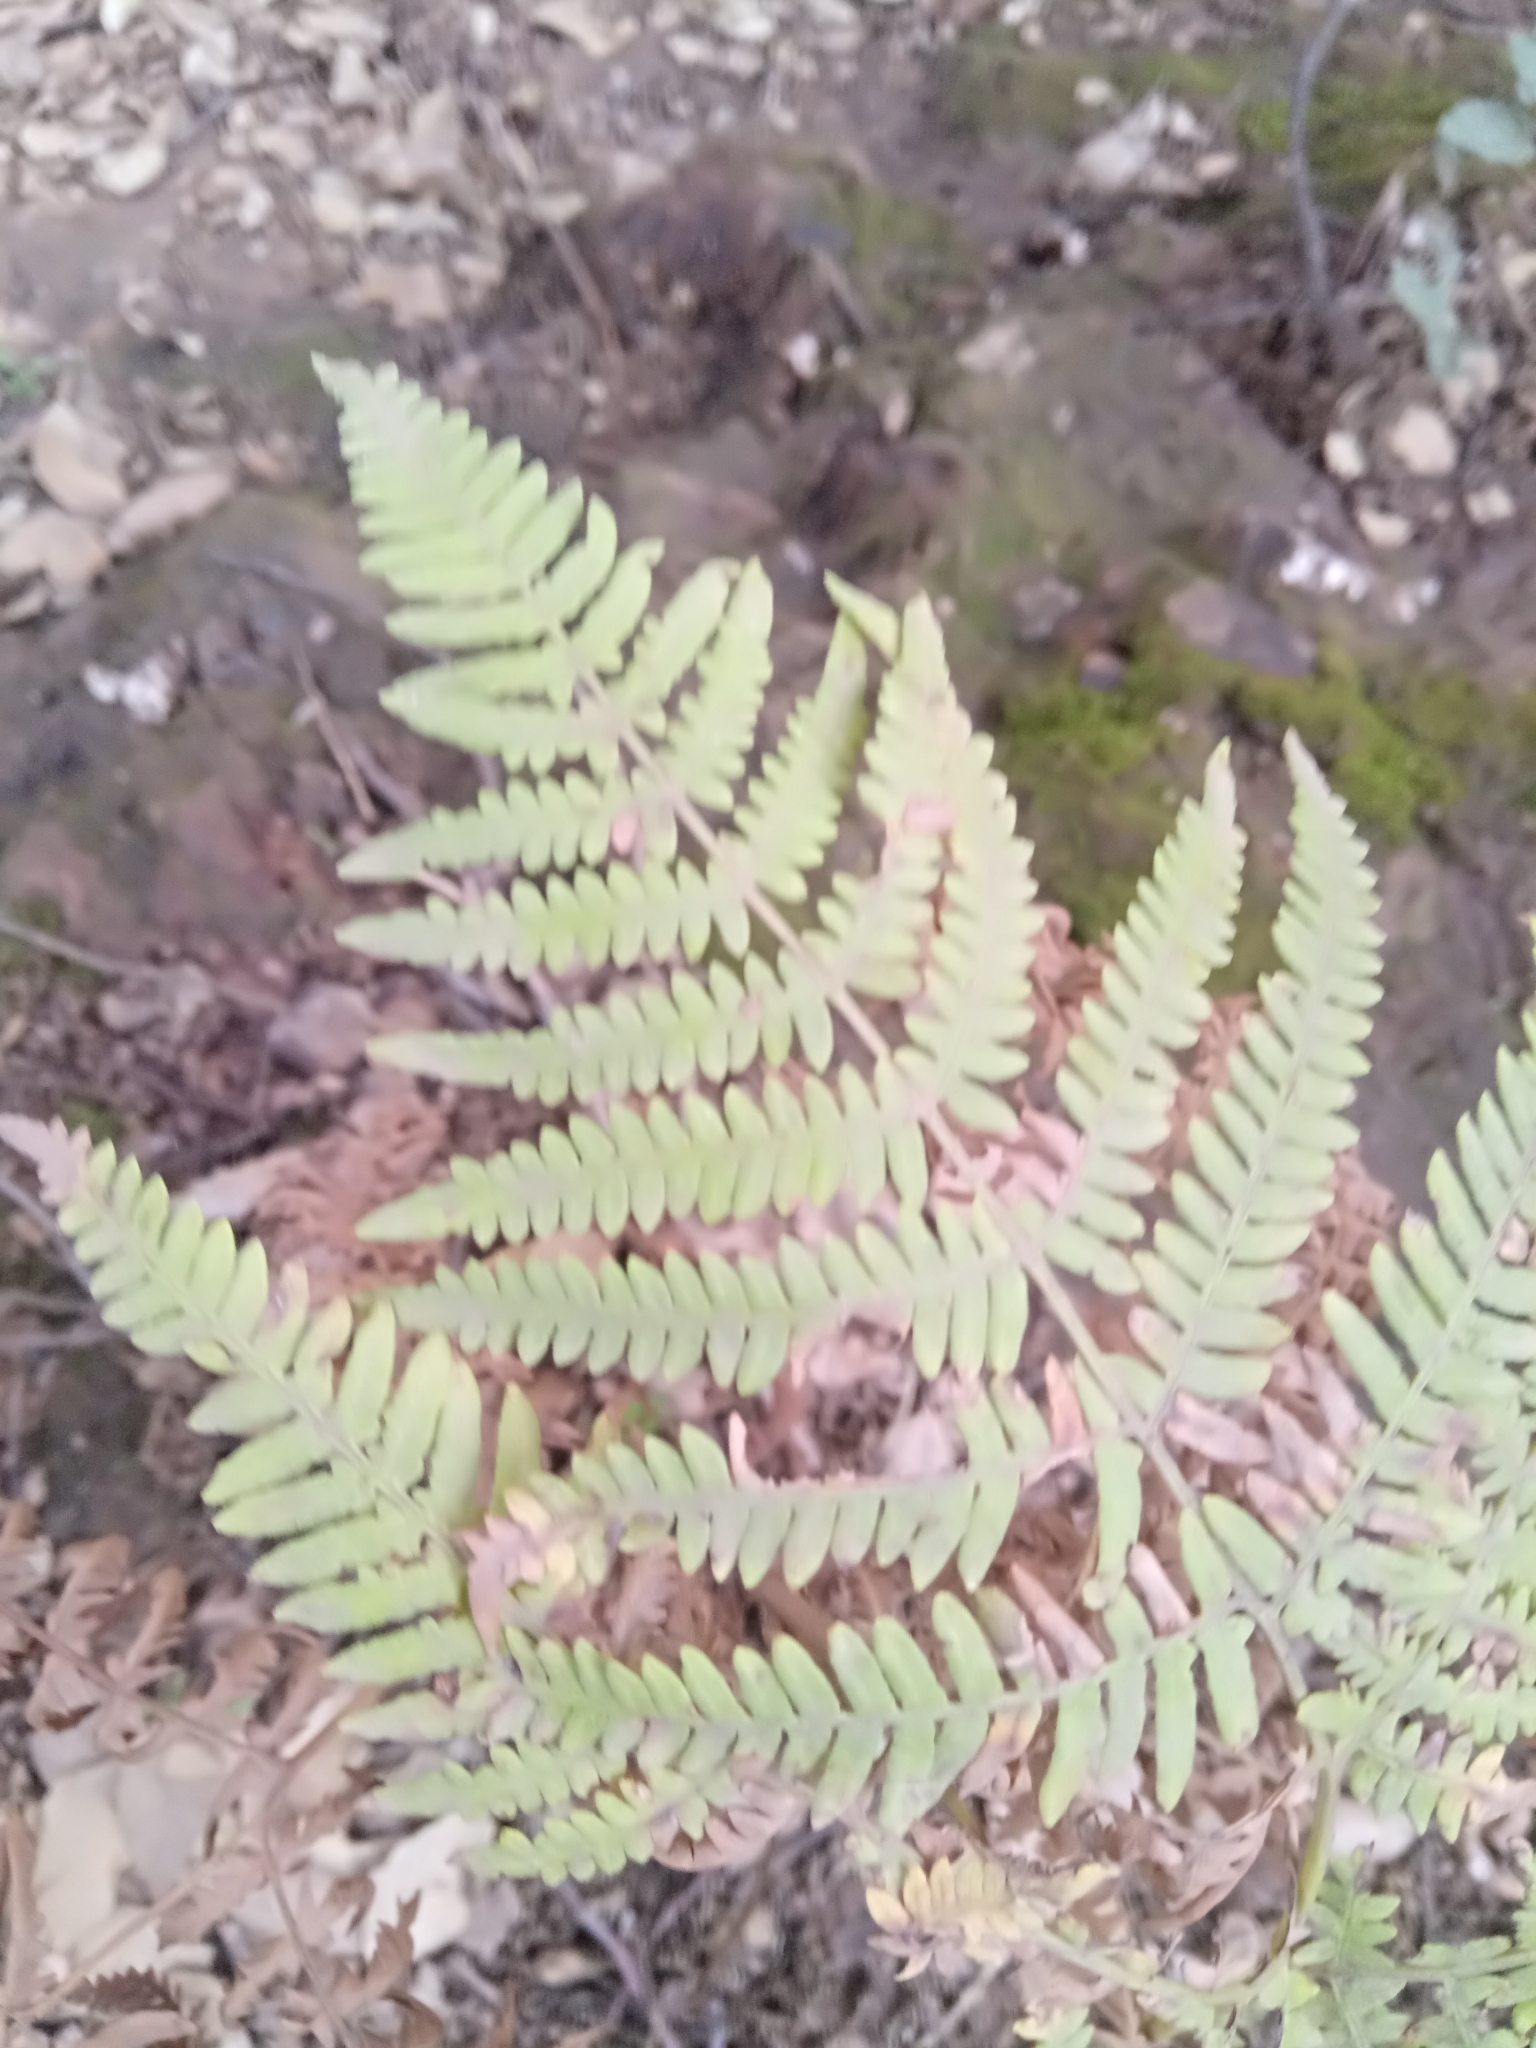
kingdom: Plantae
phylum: Tracheophyta
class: Polypodiopsida
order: Polypodiales
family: Dennstaedtiaceae
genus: Pteridium
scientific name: Pteridium aquilinum
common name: Bracken
